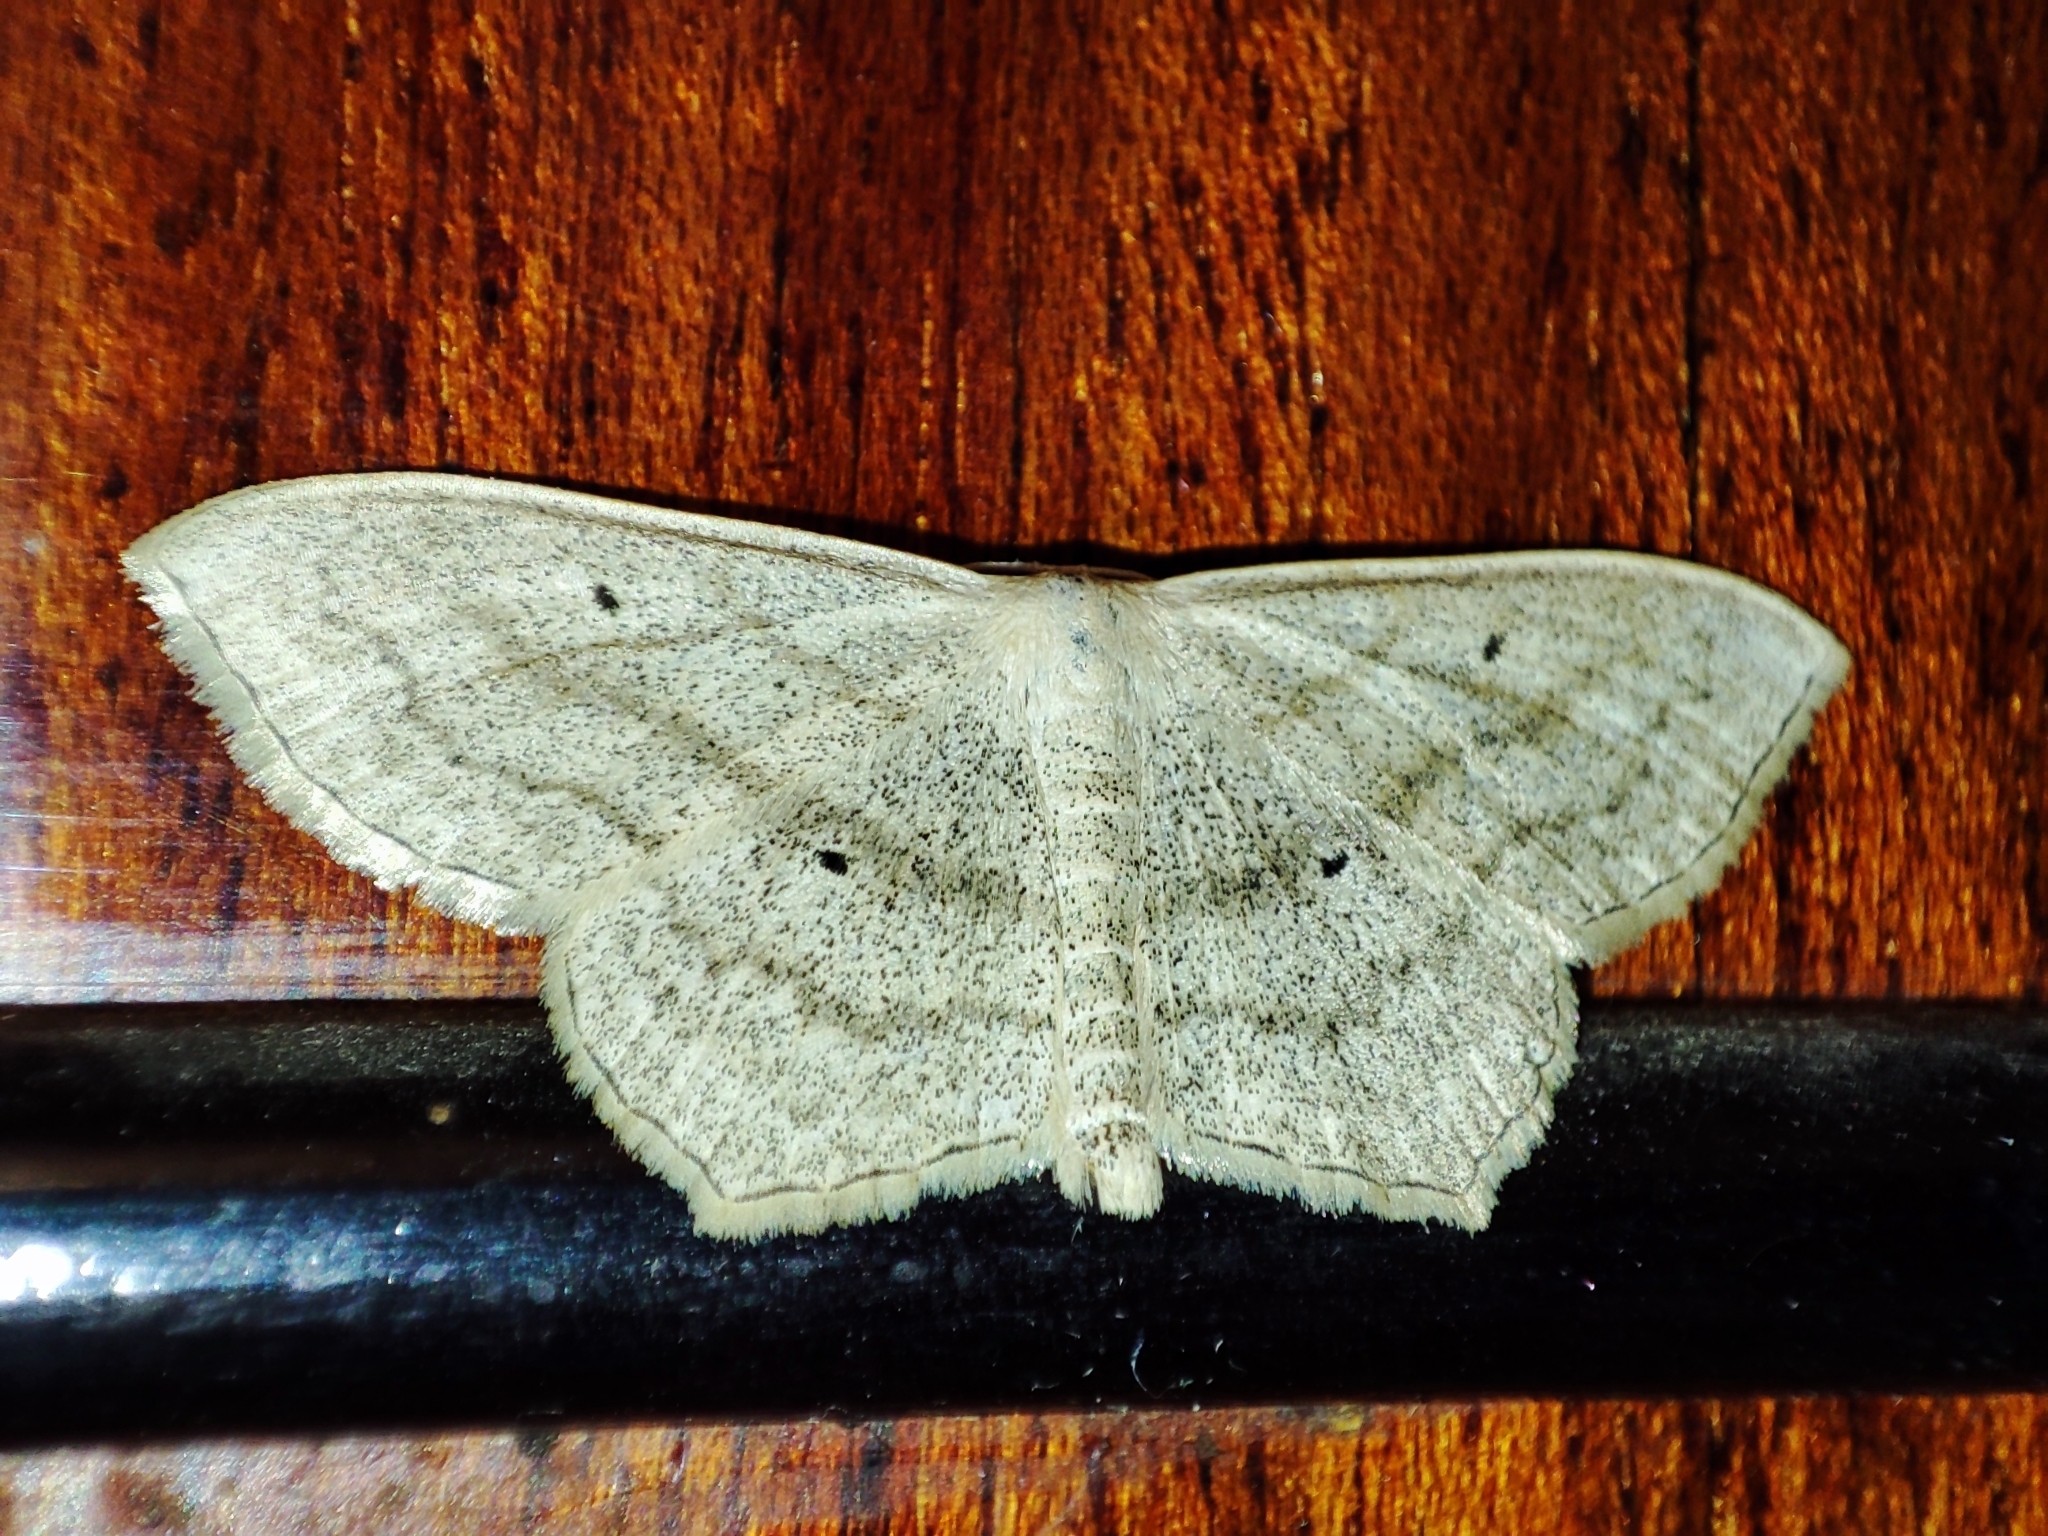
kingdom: Animalia
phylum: Arthropoda
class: Insecta
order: Lepidoptera
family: Geometridae
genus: Scopula
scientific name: Scopula nigropunctata
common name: Sub-angled wave
